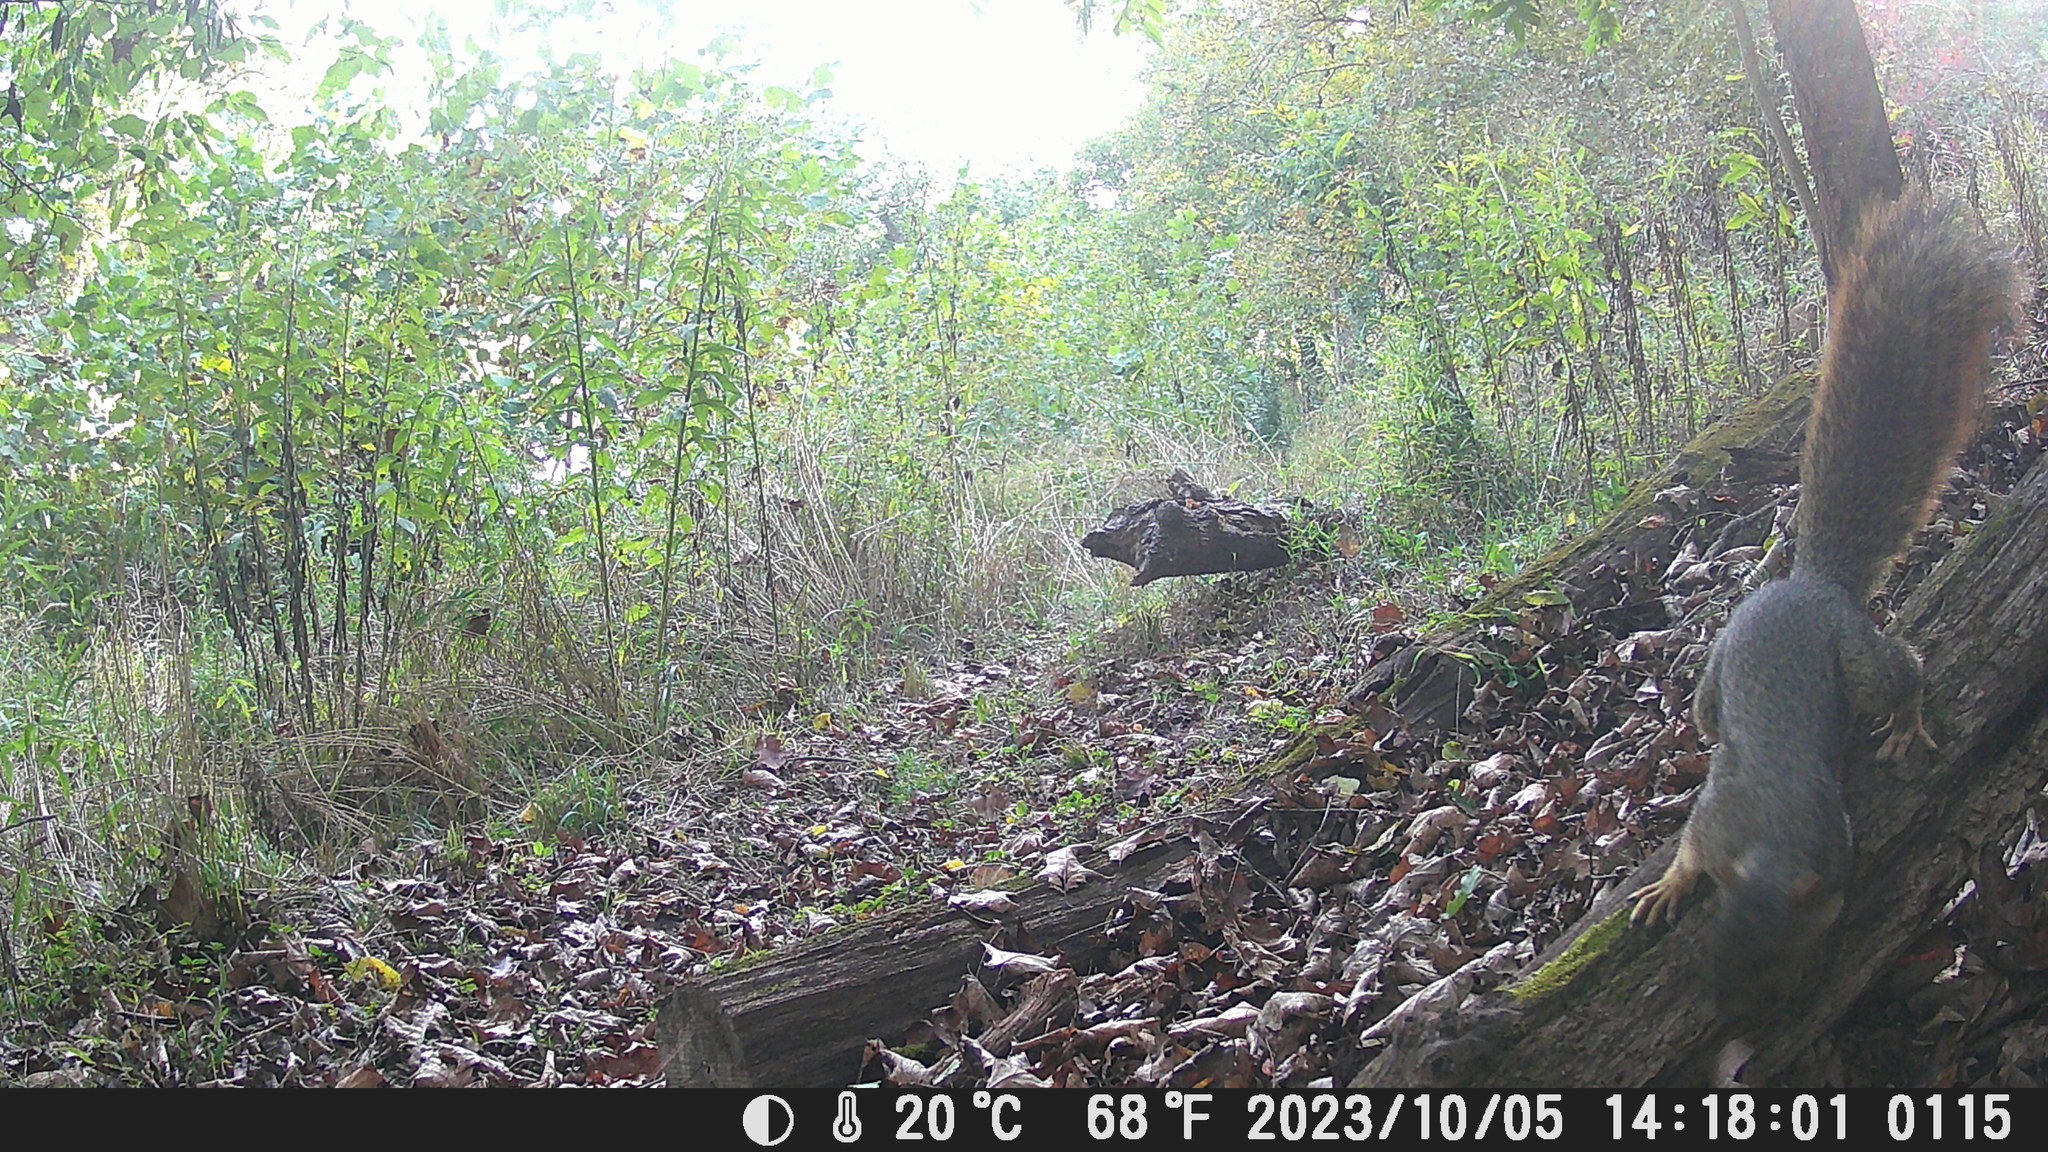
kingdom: Animalia
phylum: Chordata
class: Mammalia
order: Rodentia
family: Sciuridae
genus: Sciurus
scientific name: Sciurus niger
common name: Fox squirrel
